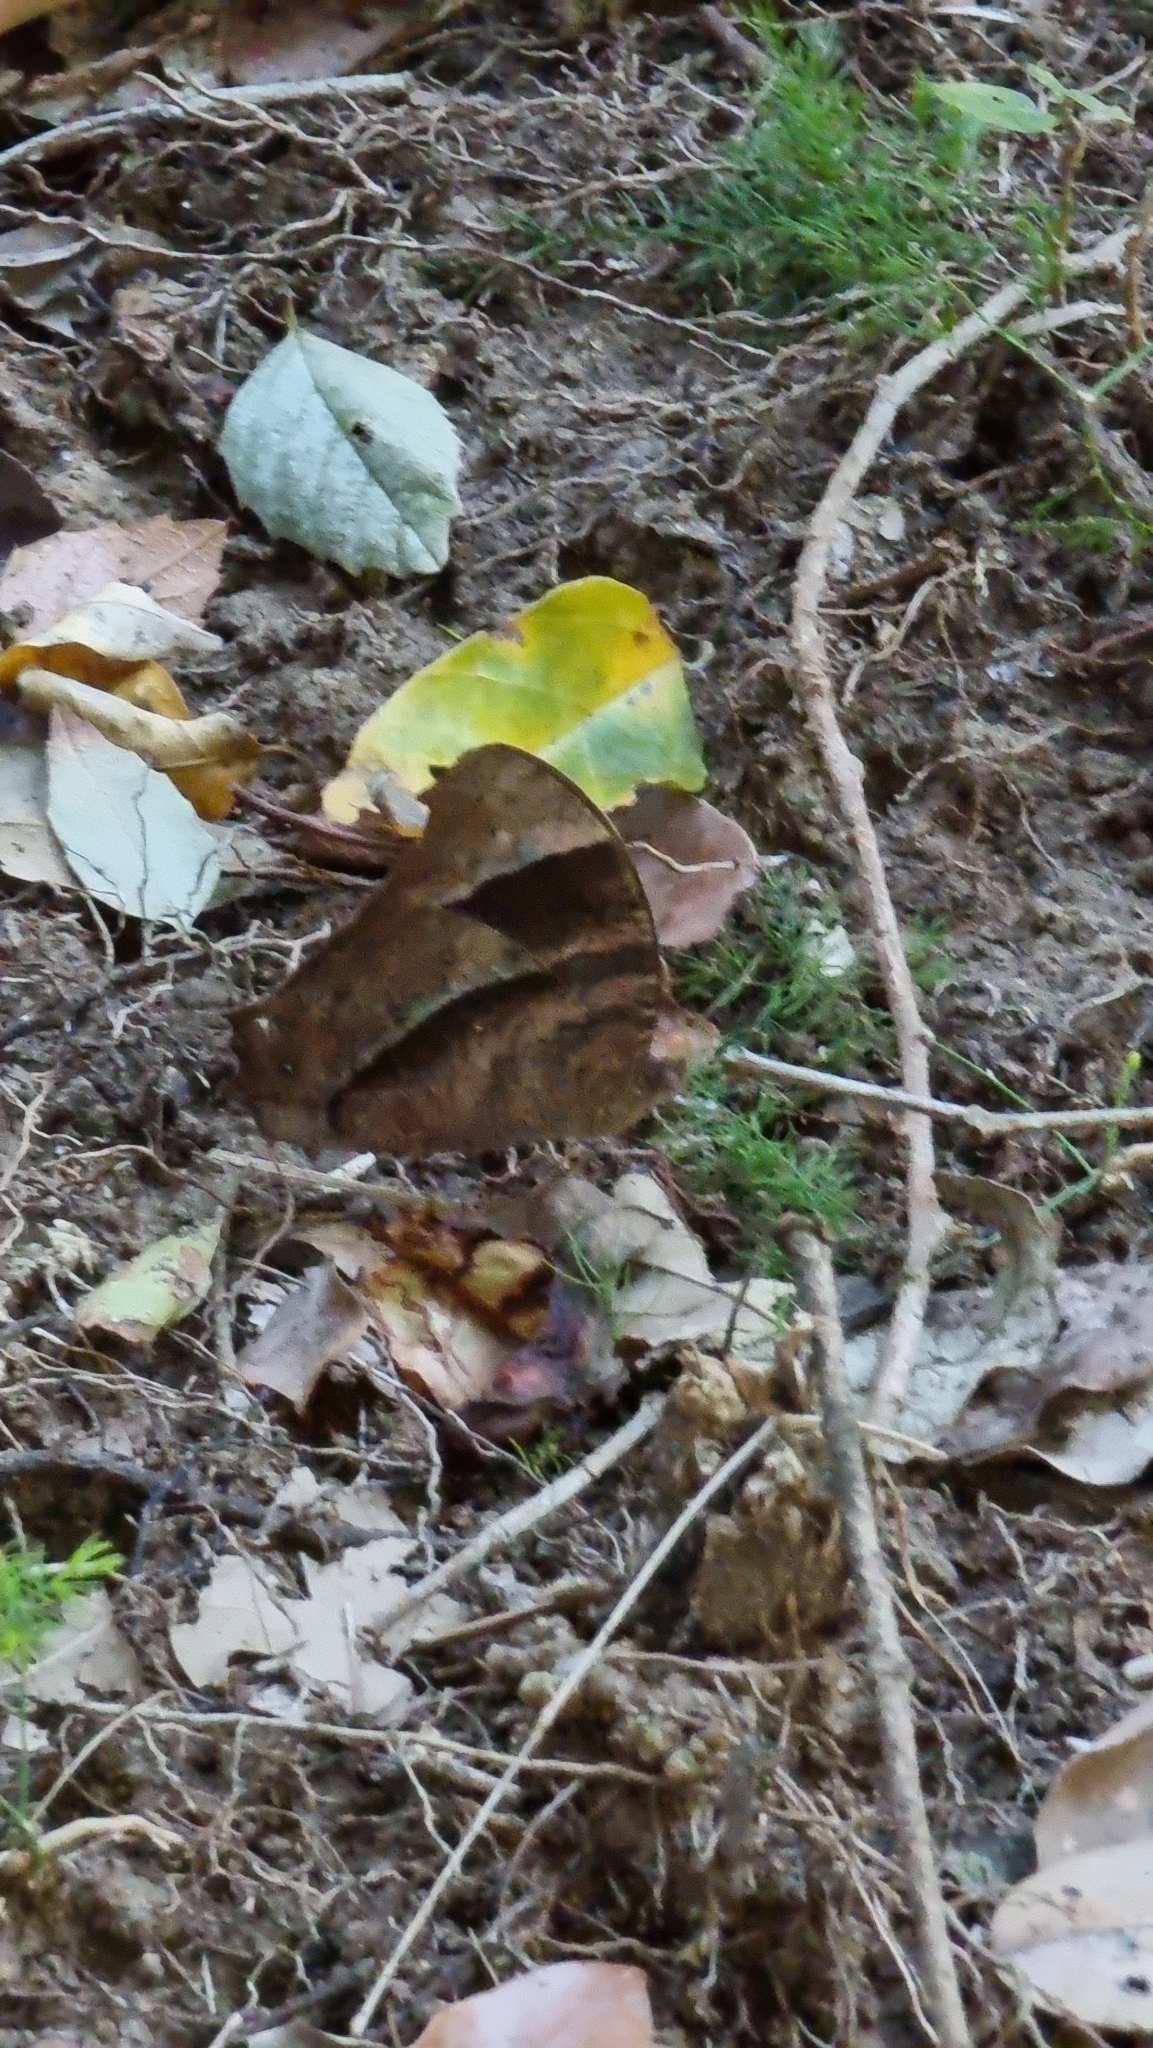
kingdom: Animalia
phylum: Arthropoda
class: Insecta
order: Lepidoptera
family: Nymphalidae
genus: Melanitis
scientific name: Melanitis leda
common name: Twilight brown
